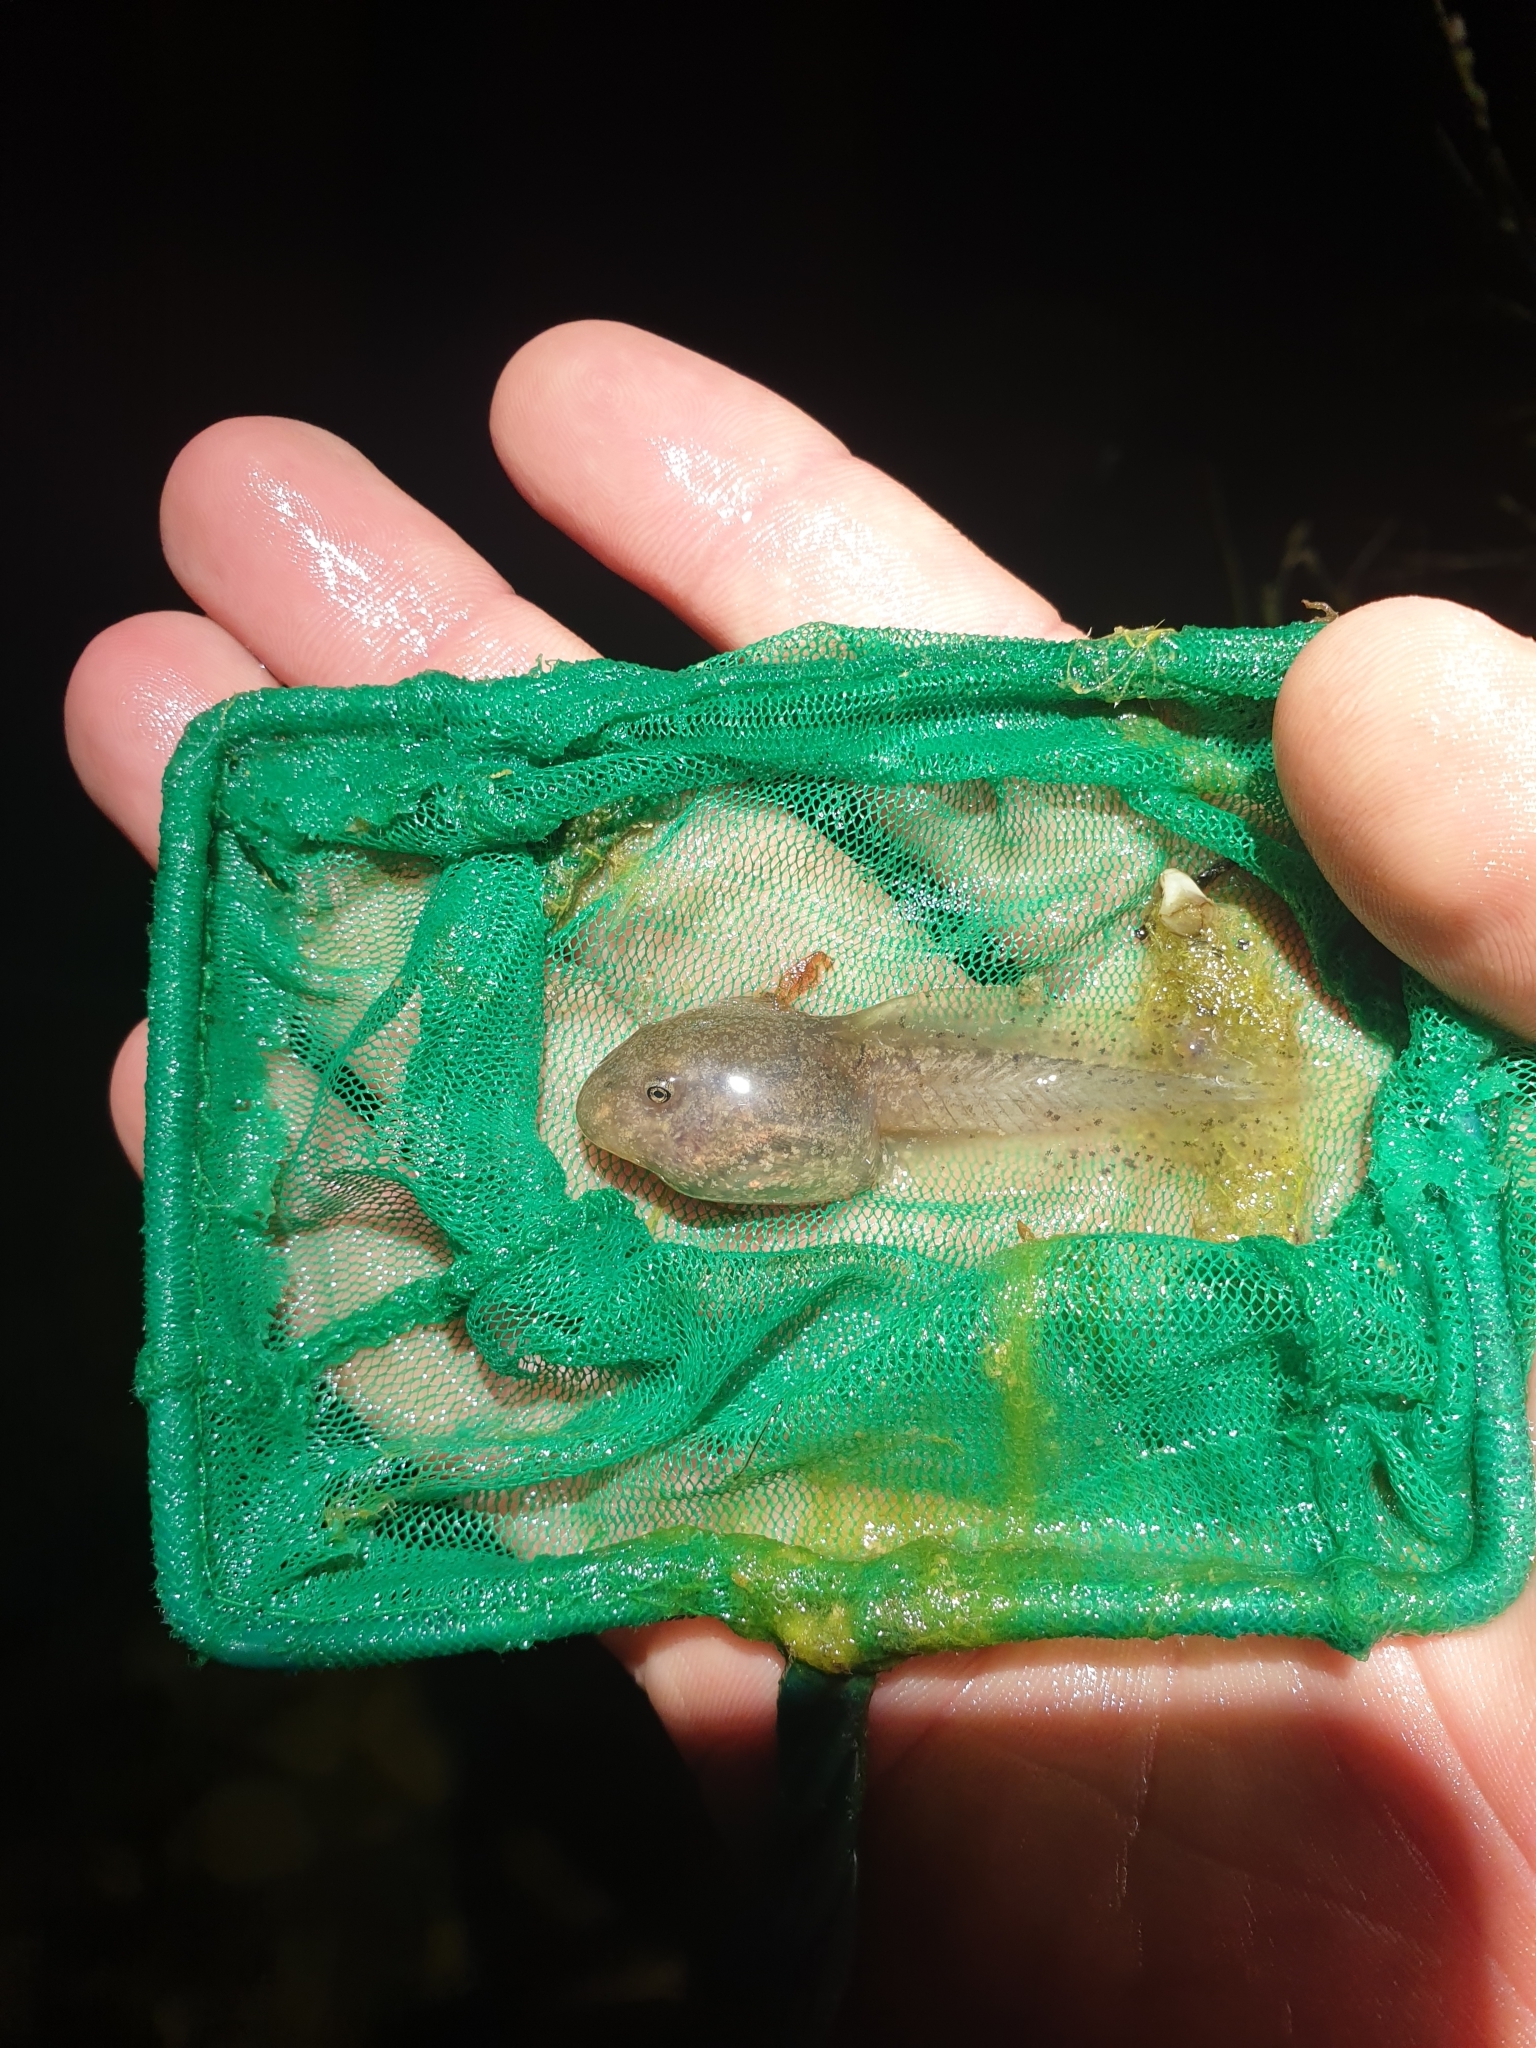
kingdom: Animalia
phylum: Chordata
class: Amphibia
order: Anura
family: Alytidae
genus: Alytes
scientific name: Alytes obstetricans
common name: Midwife toad
